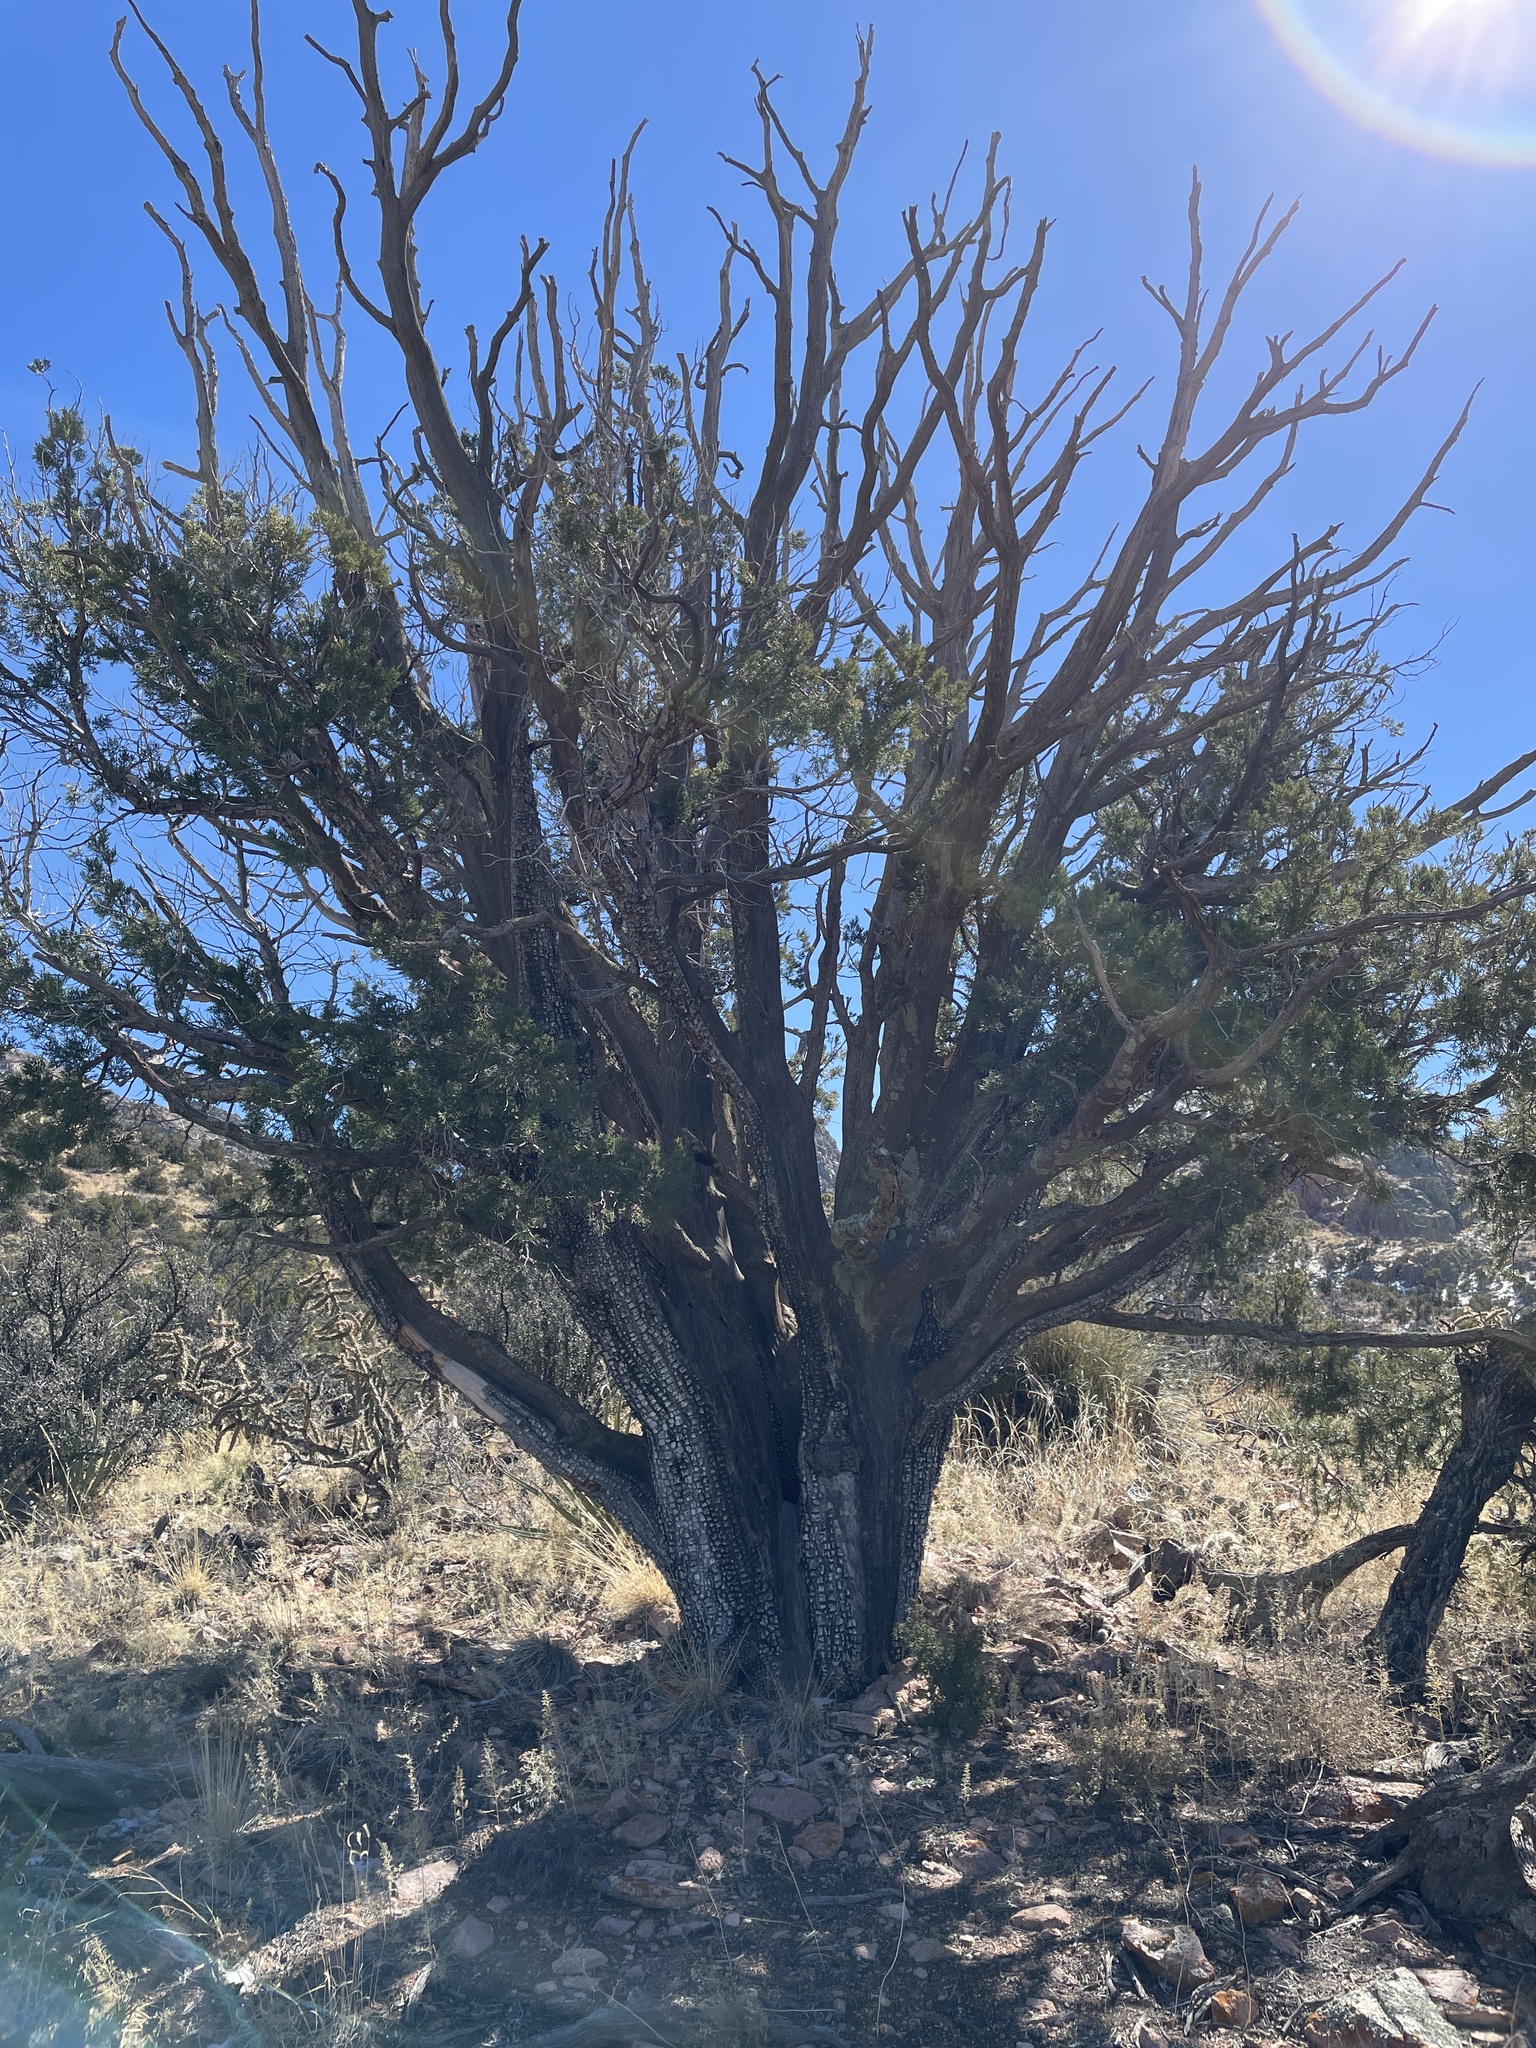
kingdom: Plantae
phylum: Tracheophyta
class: Pinopsida
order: Pinales
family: Cupressaceae
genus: Juniperus
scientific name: Juniperus deppeana
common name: Alligator juniper
